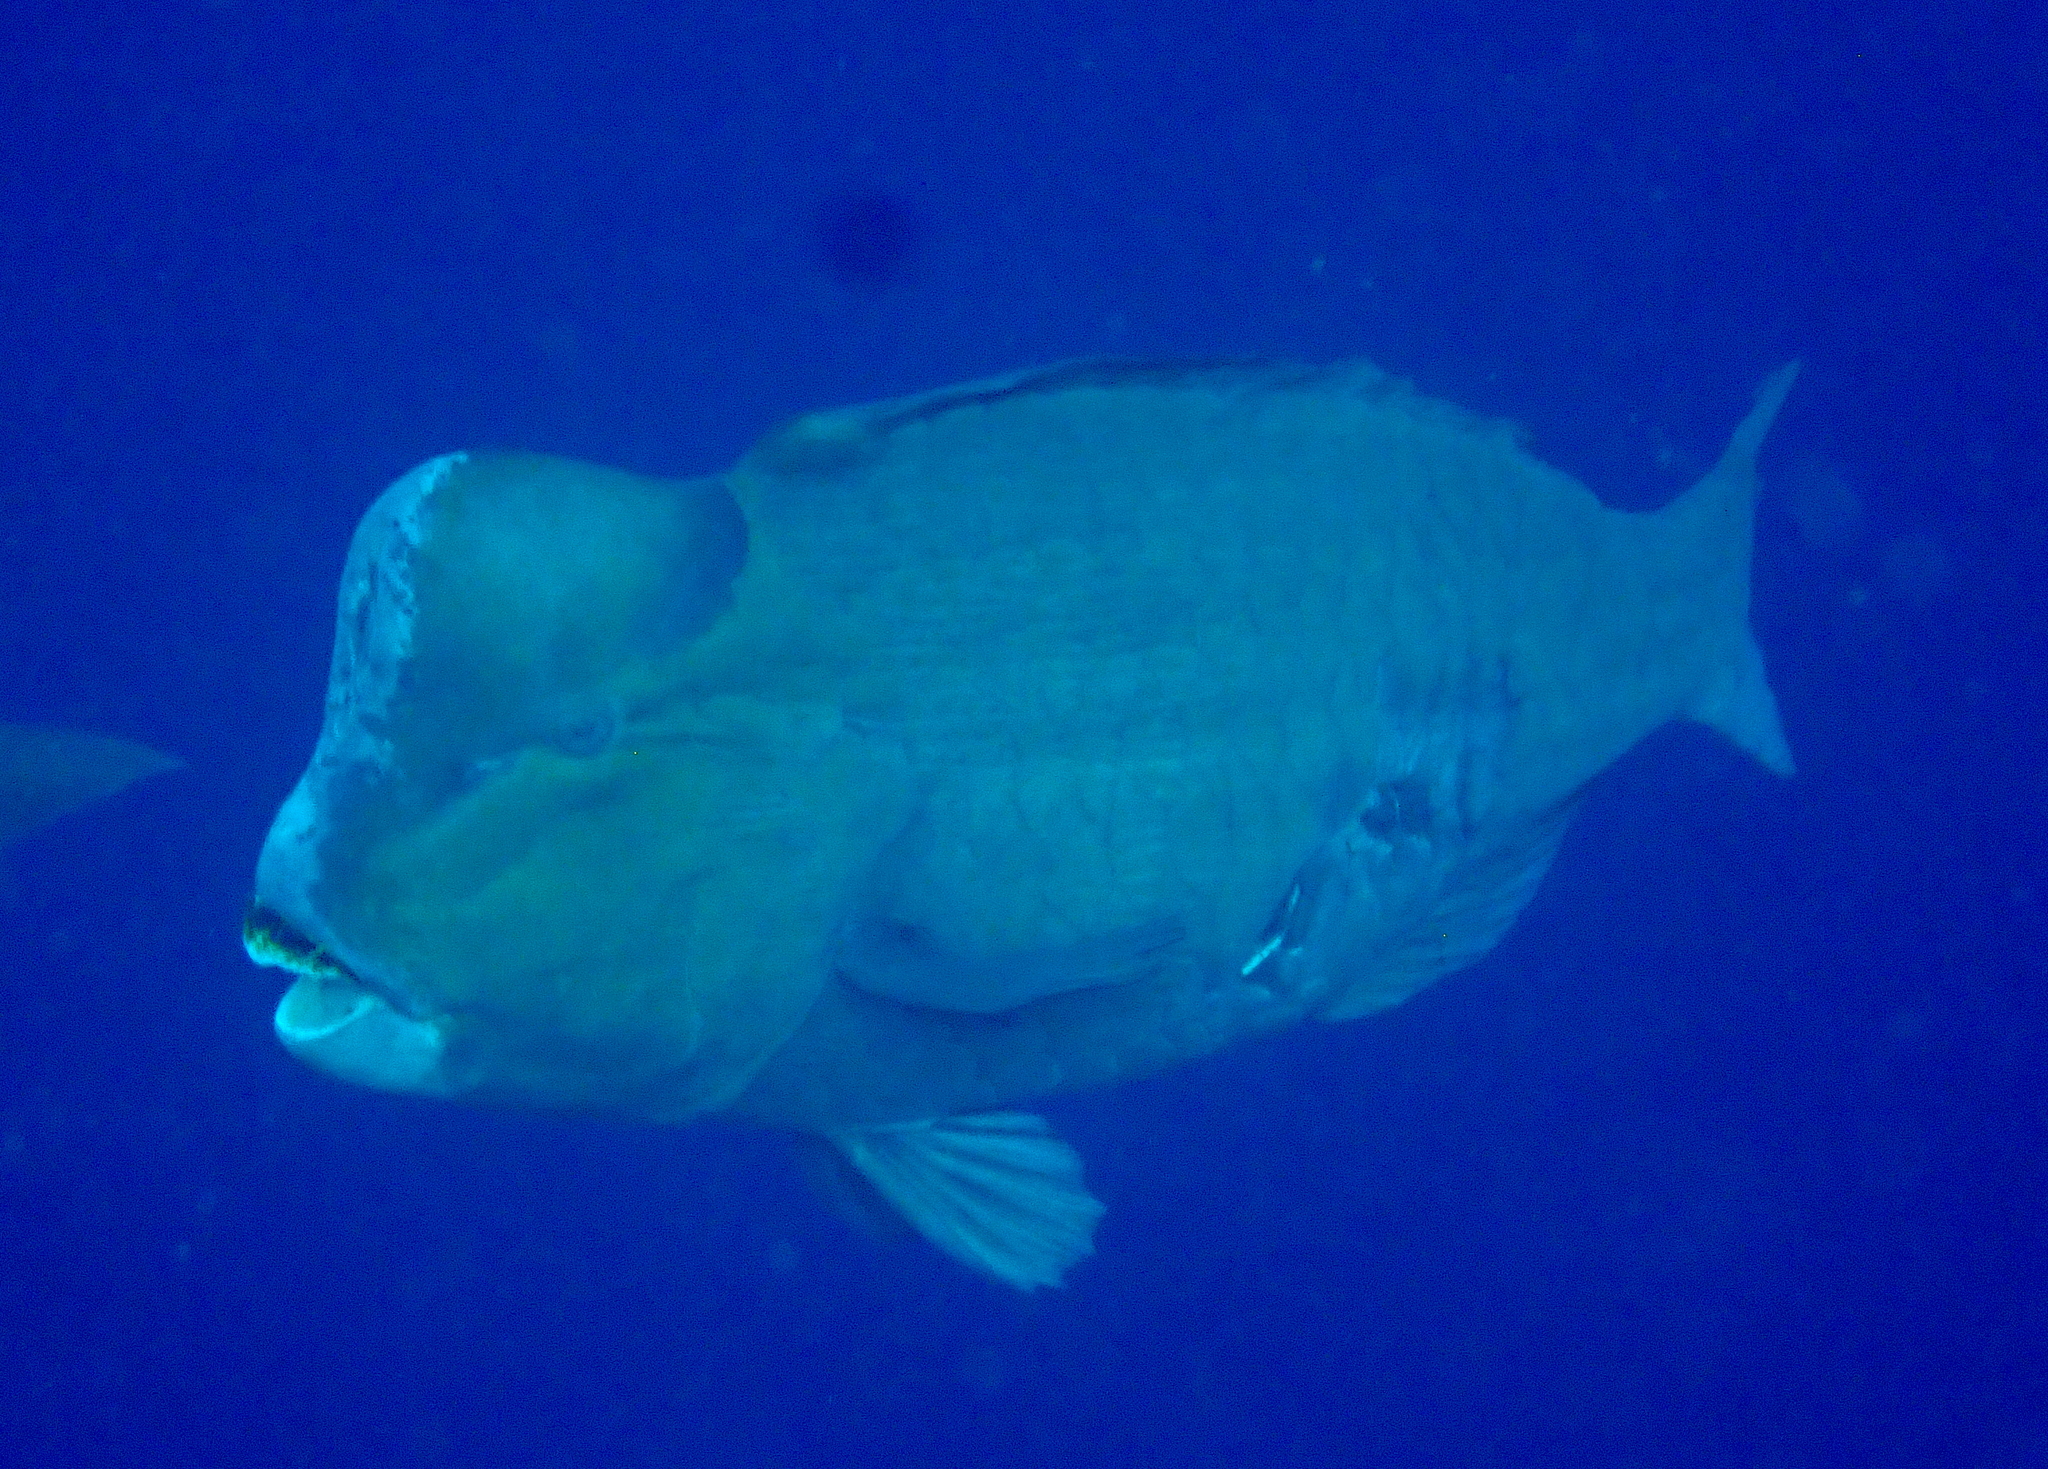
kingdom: Animalia
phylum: Chordata
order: Perciformes
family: Scaridae
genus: Bolbometopon
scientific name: Bolbometopon muricatum
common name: Humphead parrotfish
